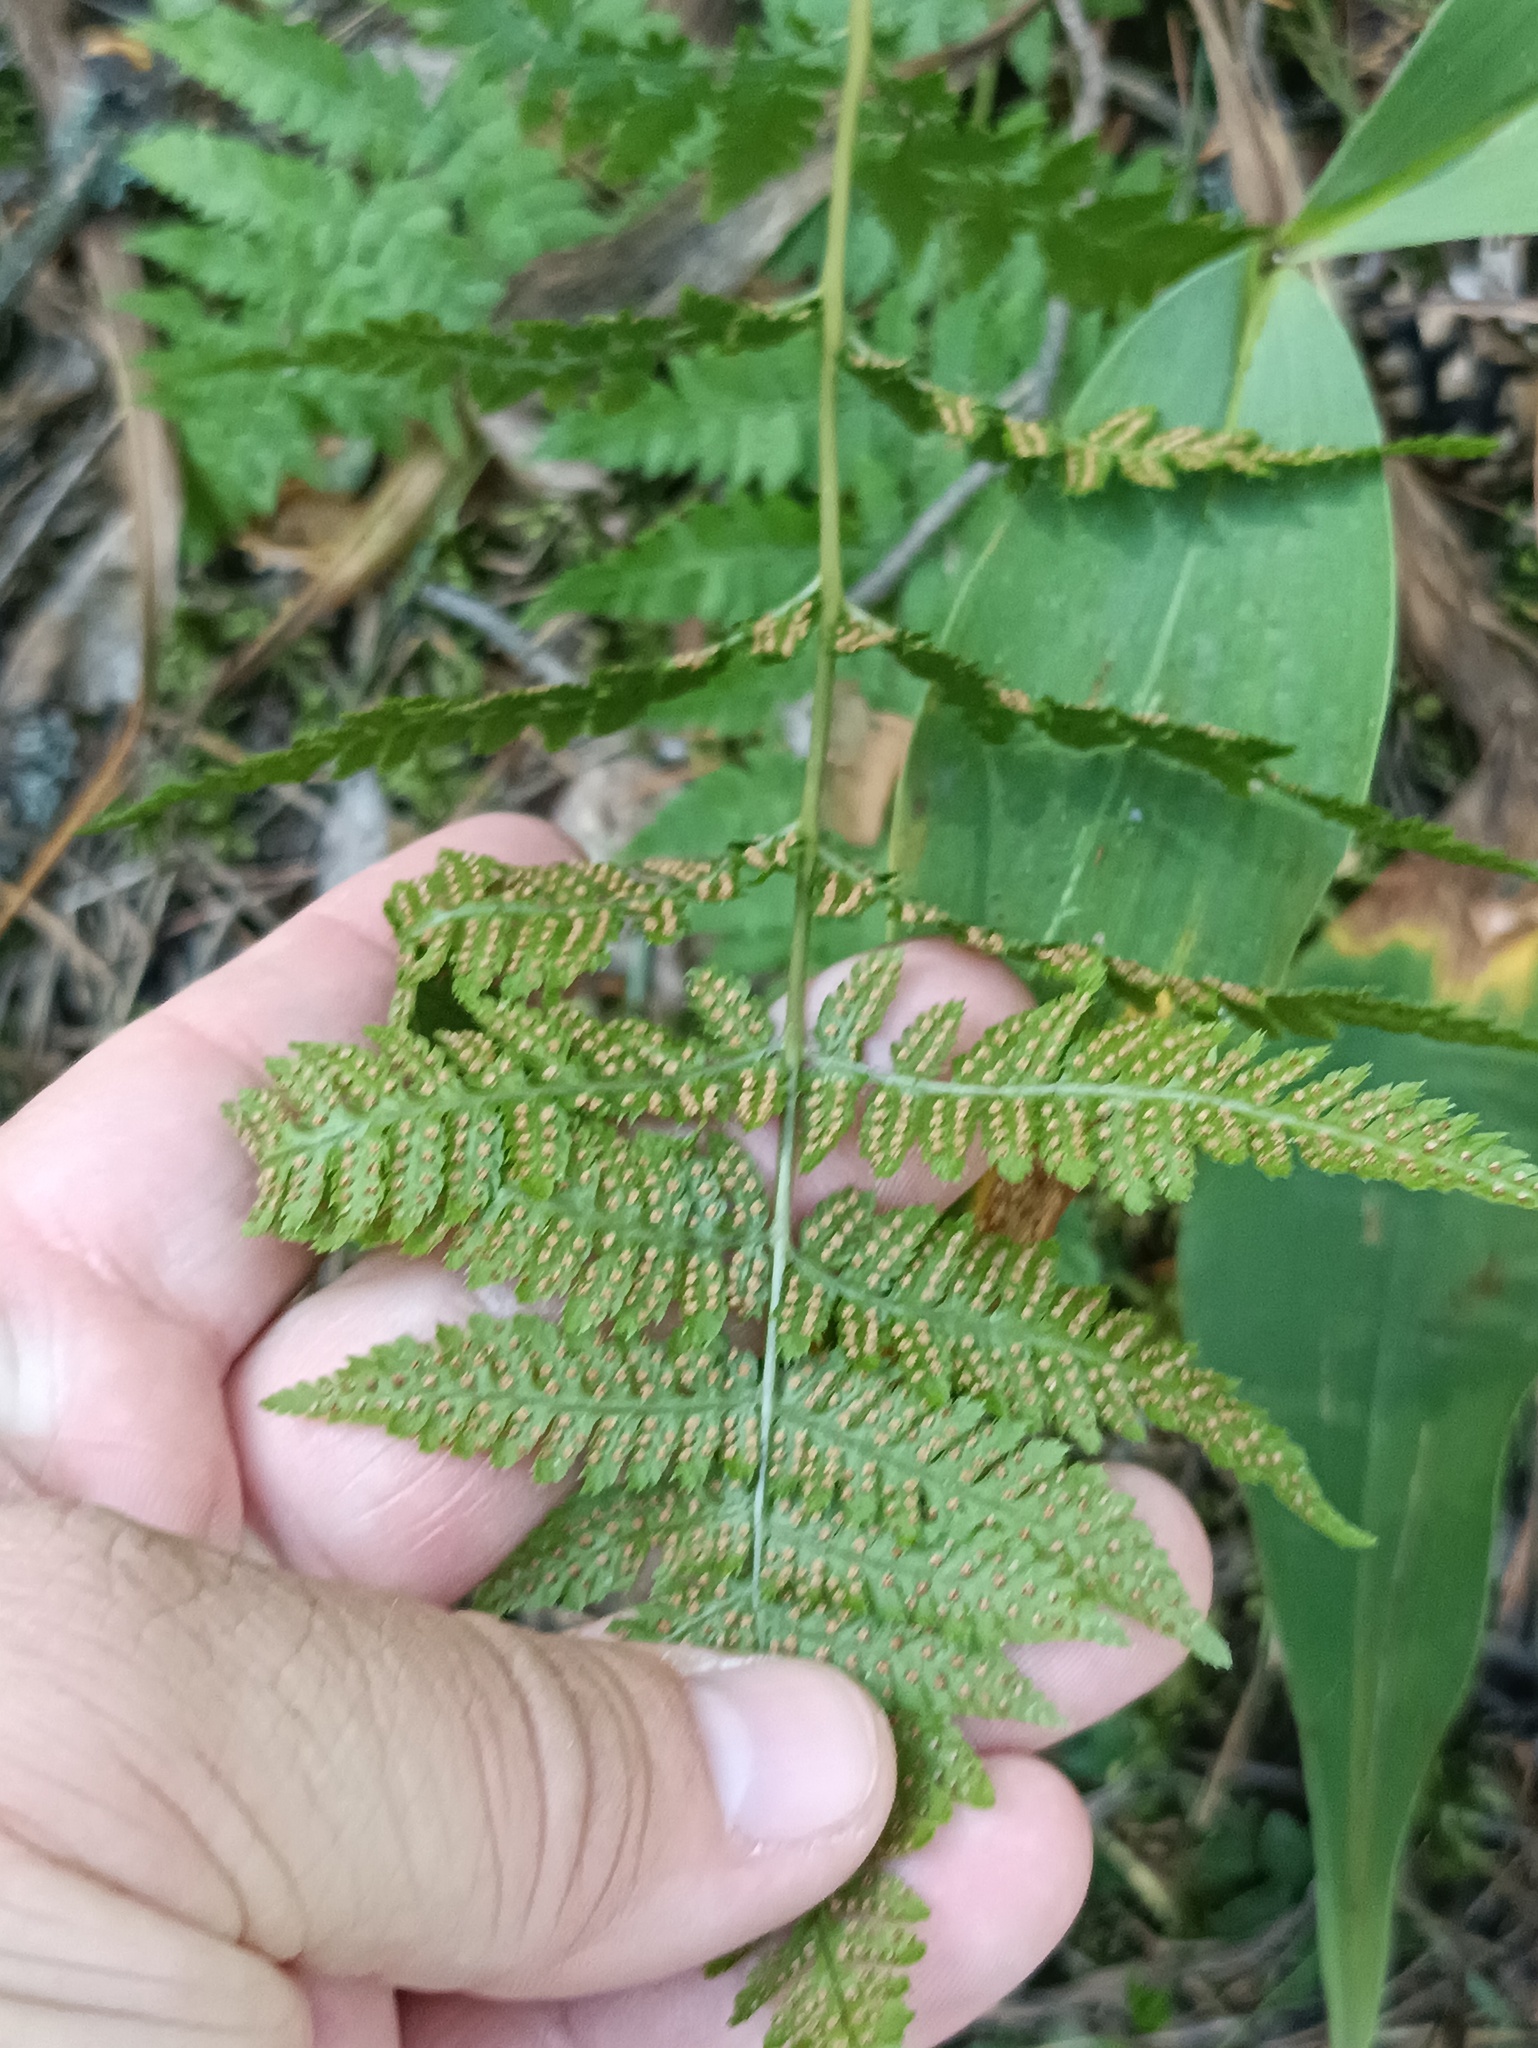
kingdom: Plantae
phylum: Tracheophyta
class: Polypodiopsida
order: Polypodiales
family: Dryopteridaceae
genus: Dryopteris
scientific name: Dryopteris carthusiana
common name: Narrow buckler-fern
